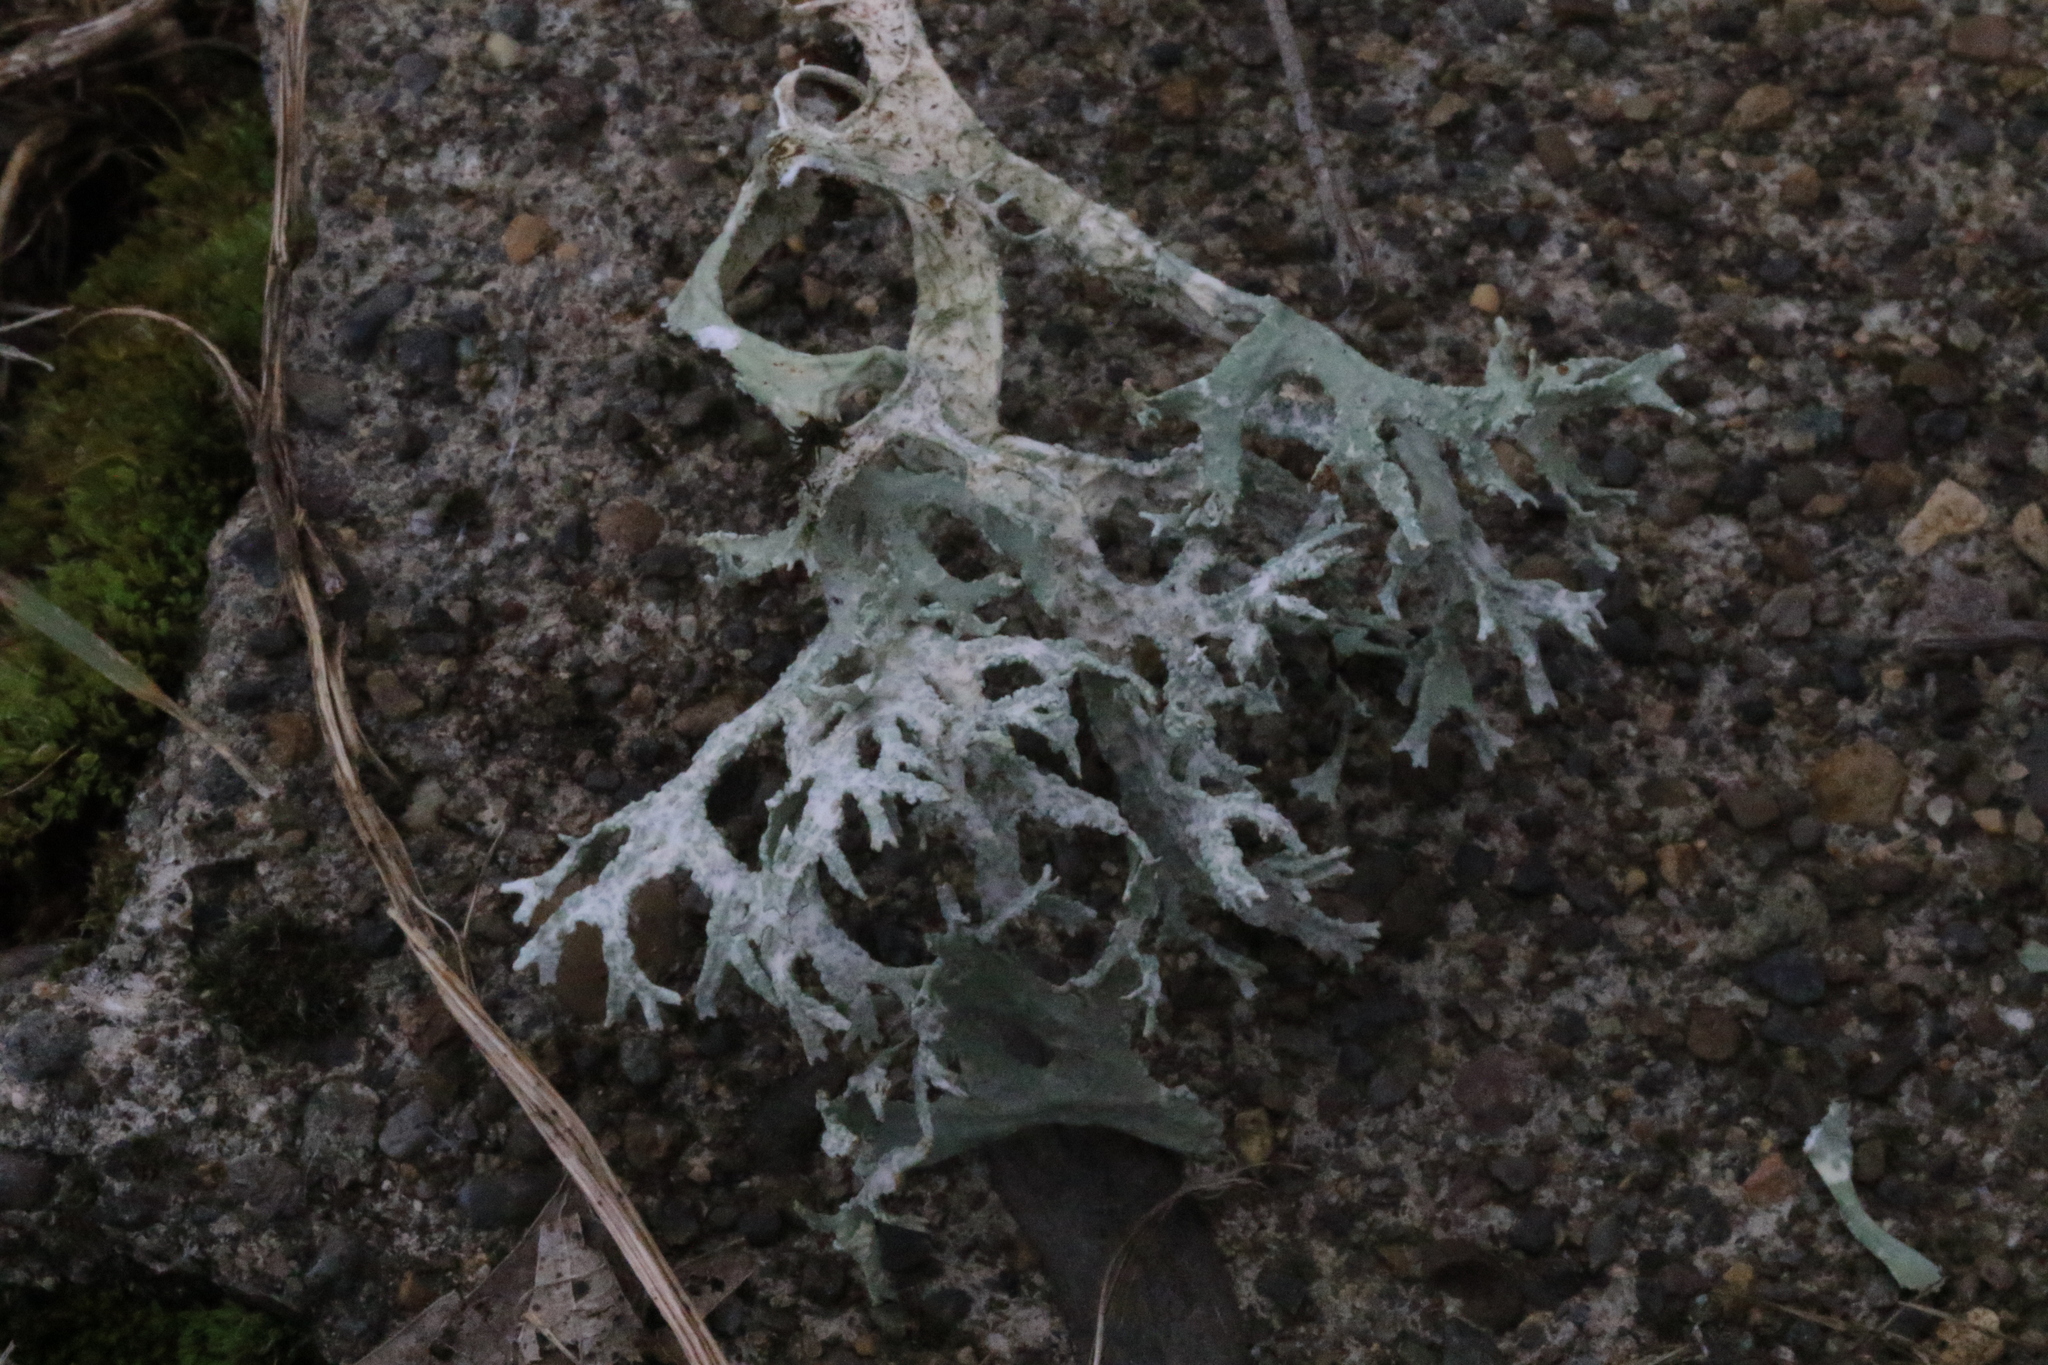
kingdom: Fungi
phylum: Ascomycota
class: Lecanoromycetes
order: Lecanorales
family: Parmeliaceae
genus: Evernia
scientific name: Evernia prunastri
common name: Oak moss
